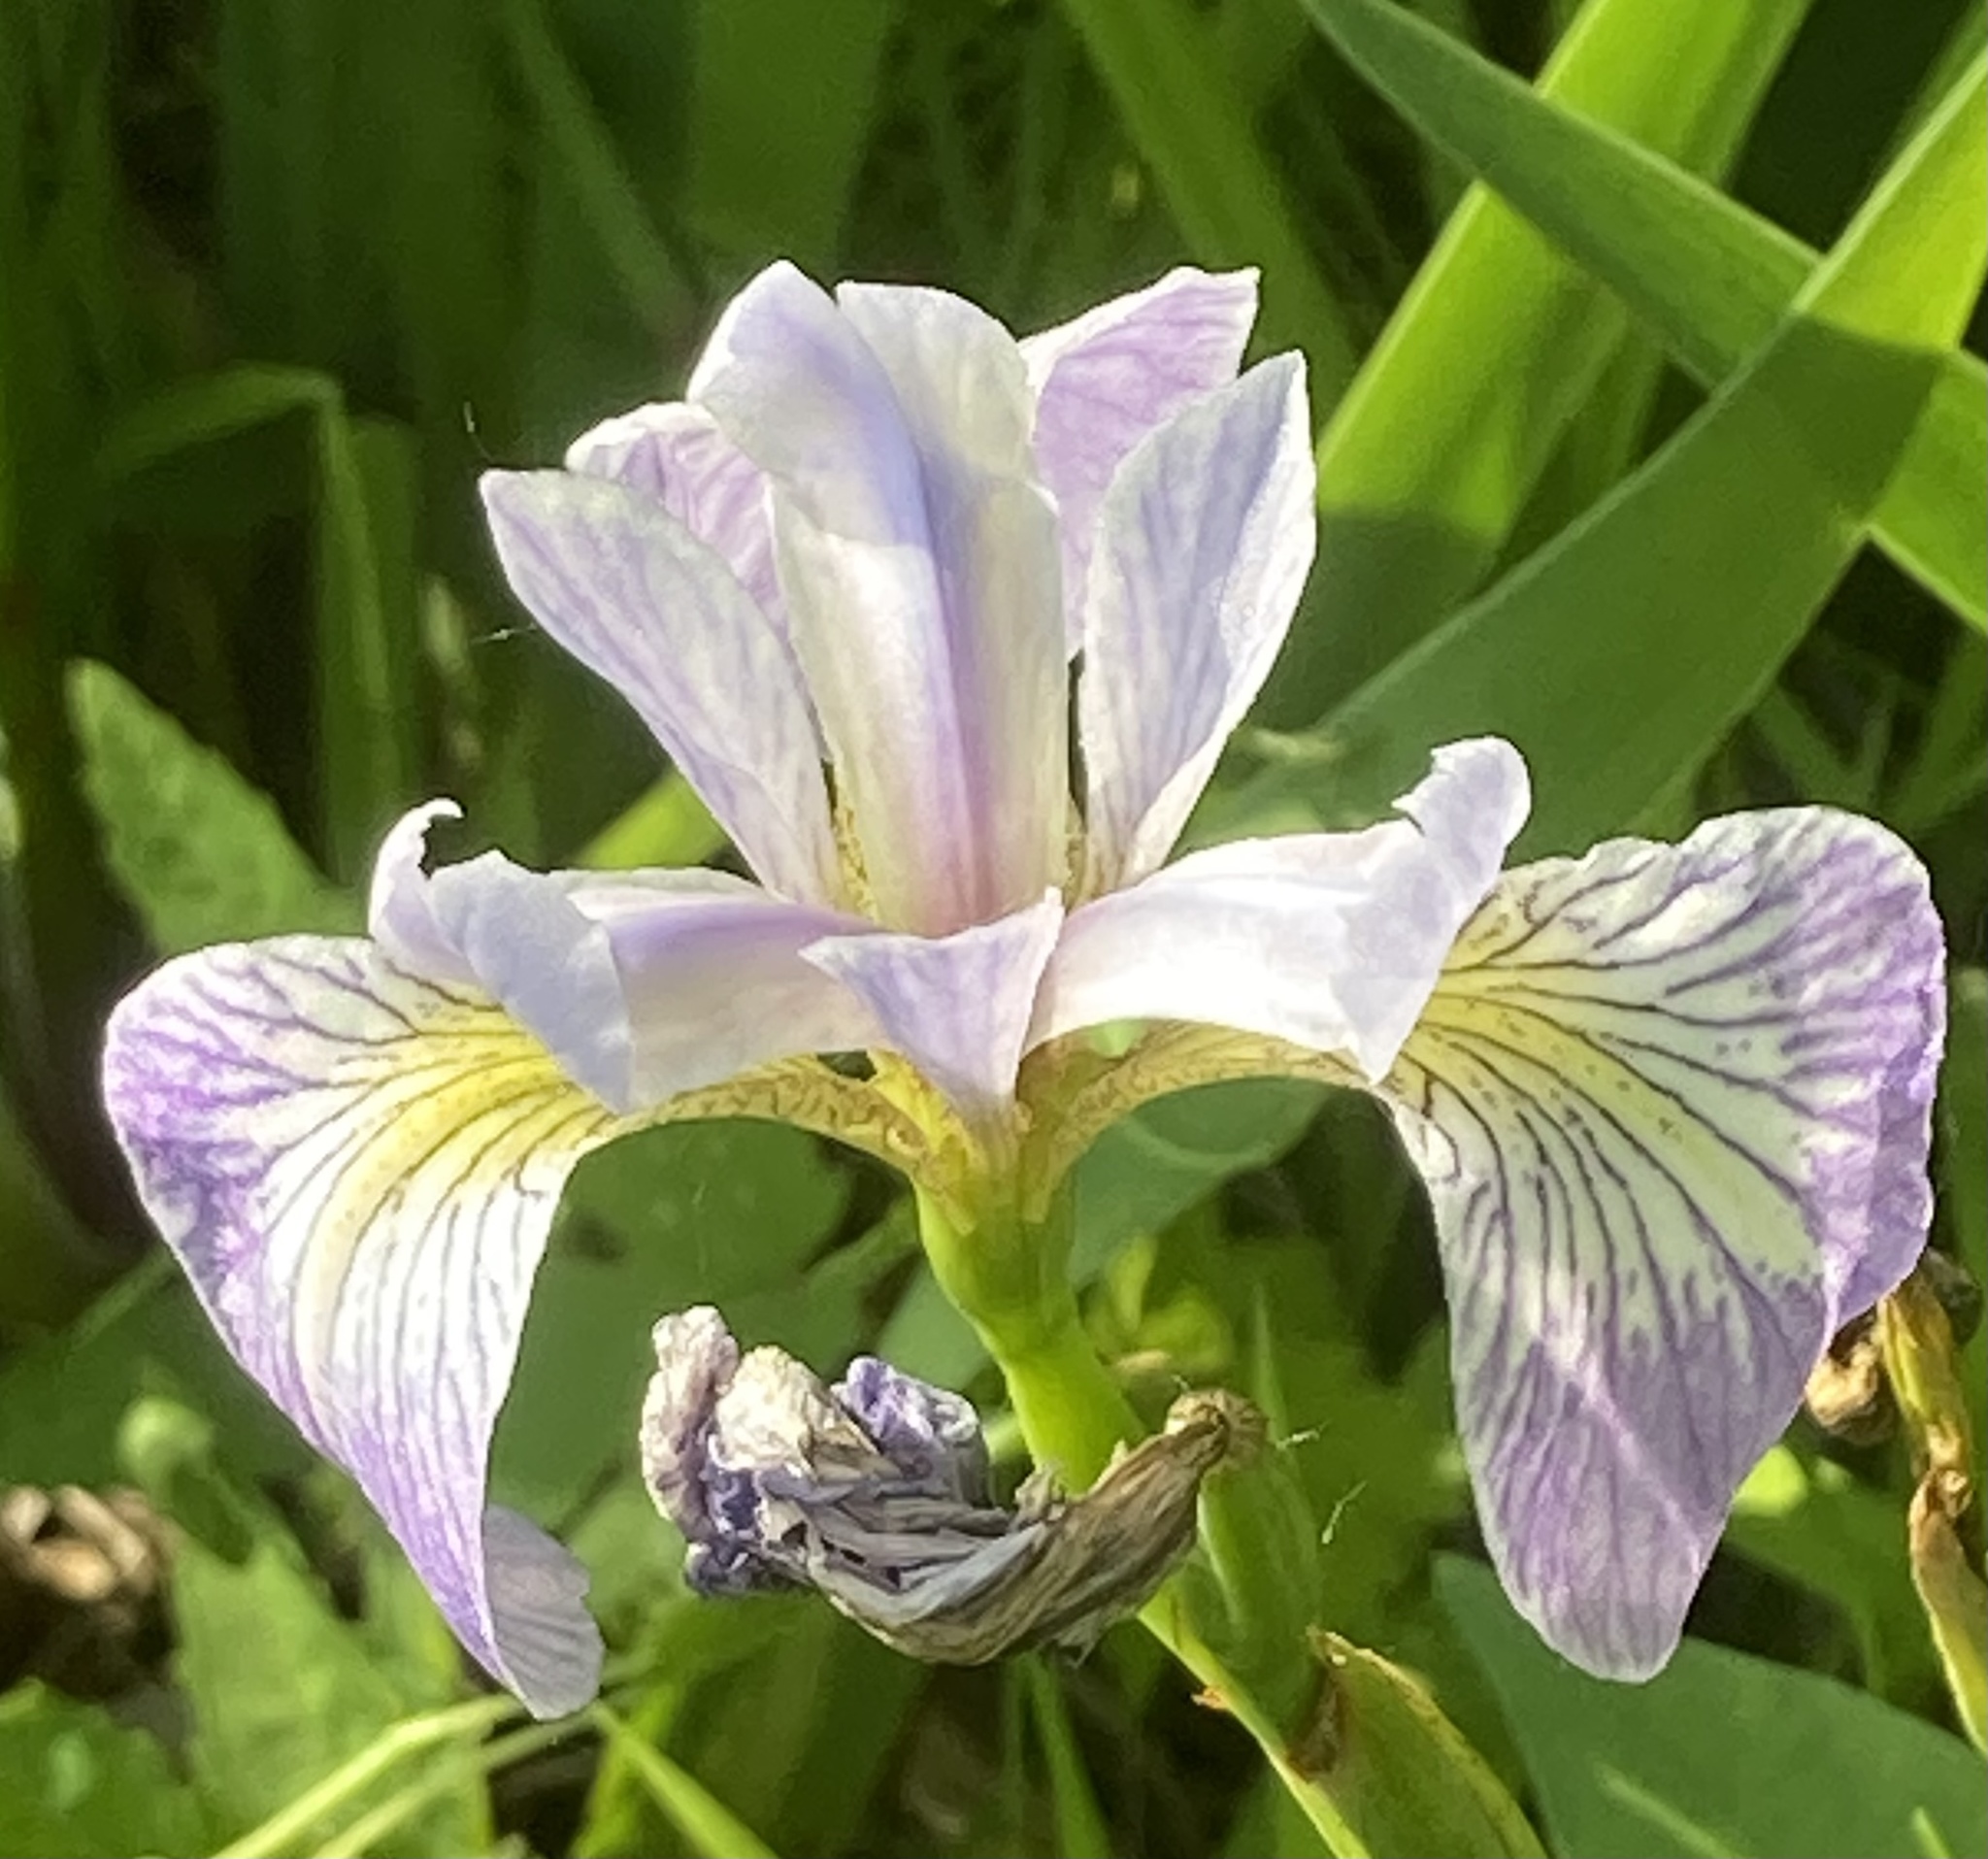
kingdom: Plantae
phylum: Tracheophyta
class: Liliopsida
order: Asparagales
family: Iridaceae
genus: Iris
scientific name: Iris versicolor
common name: Purple iris
